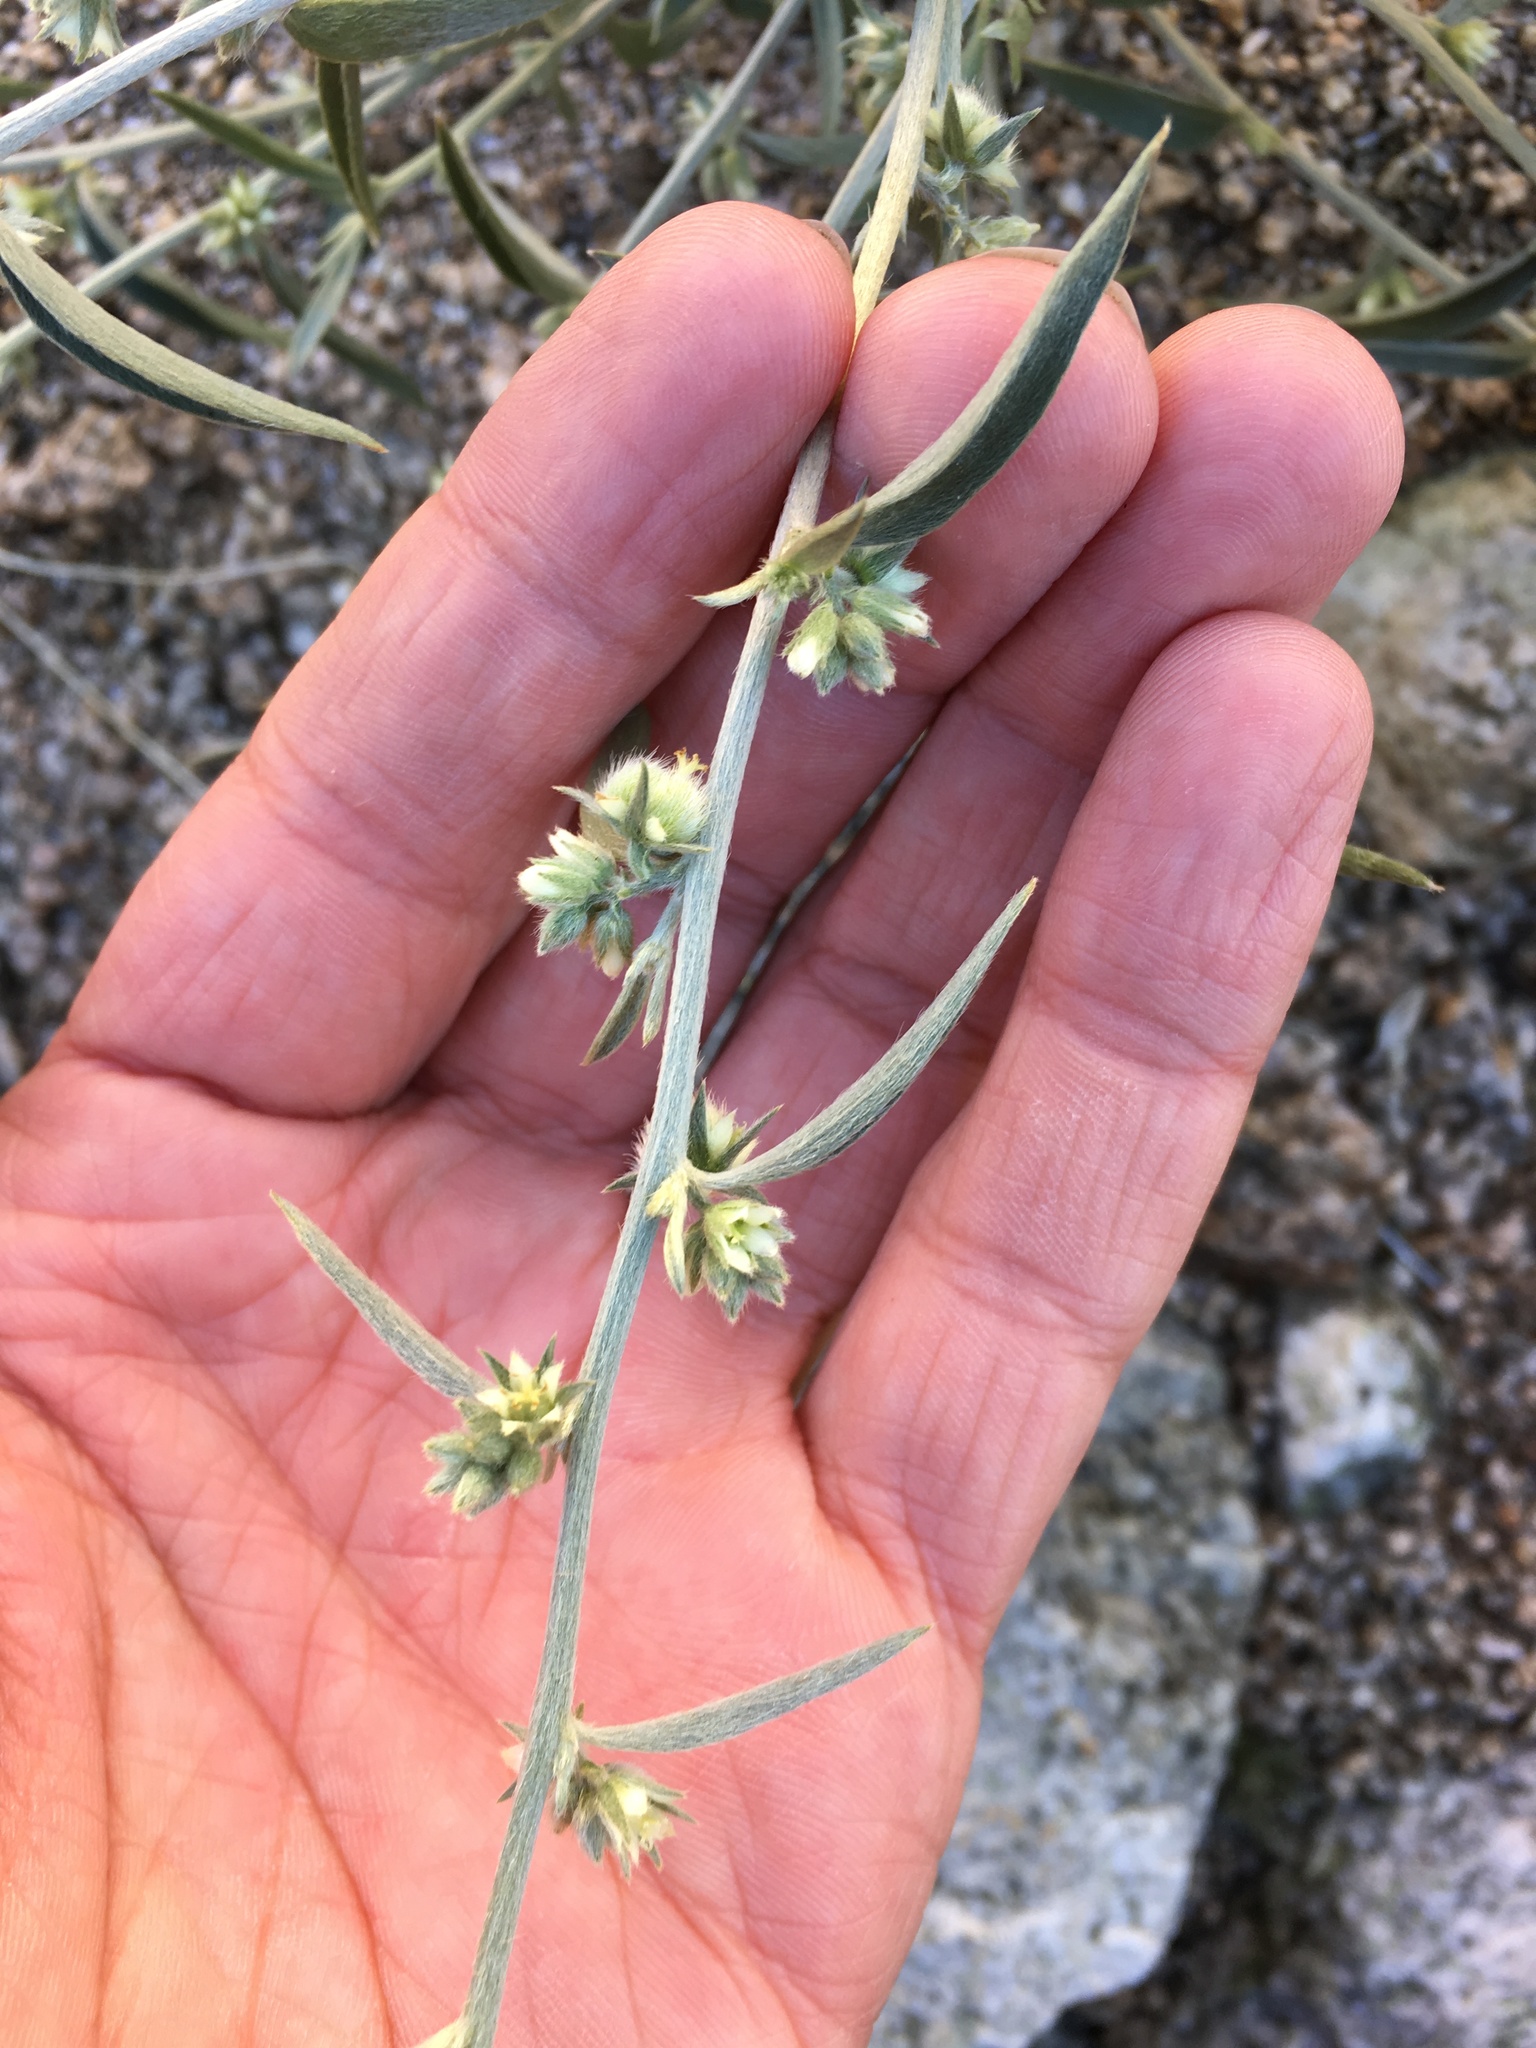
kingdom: Plantae
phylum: Tracheophyta
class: Magnoliopsida
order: Malpighiales
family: Euphorbiaceae
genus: Ditaxis
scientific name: Ditaxis lanceolata
